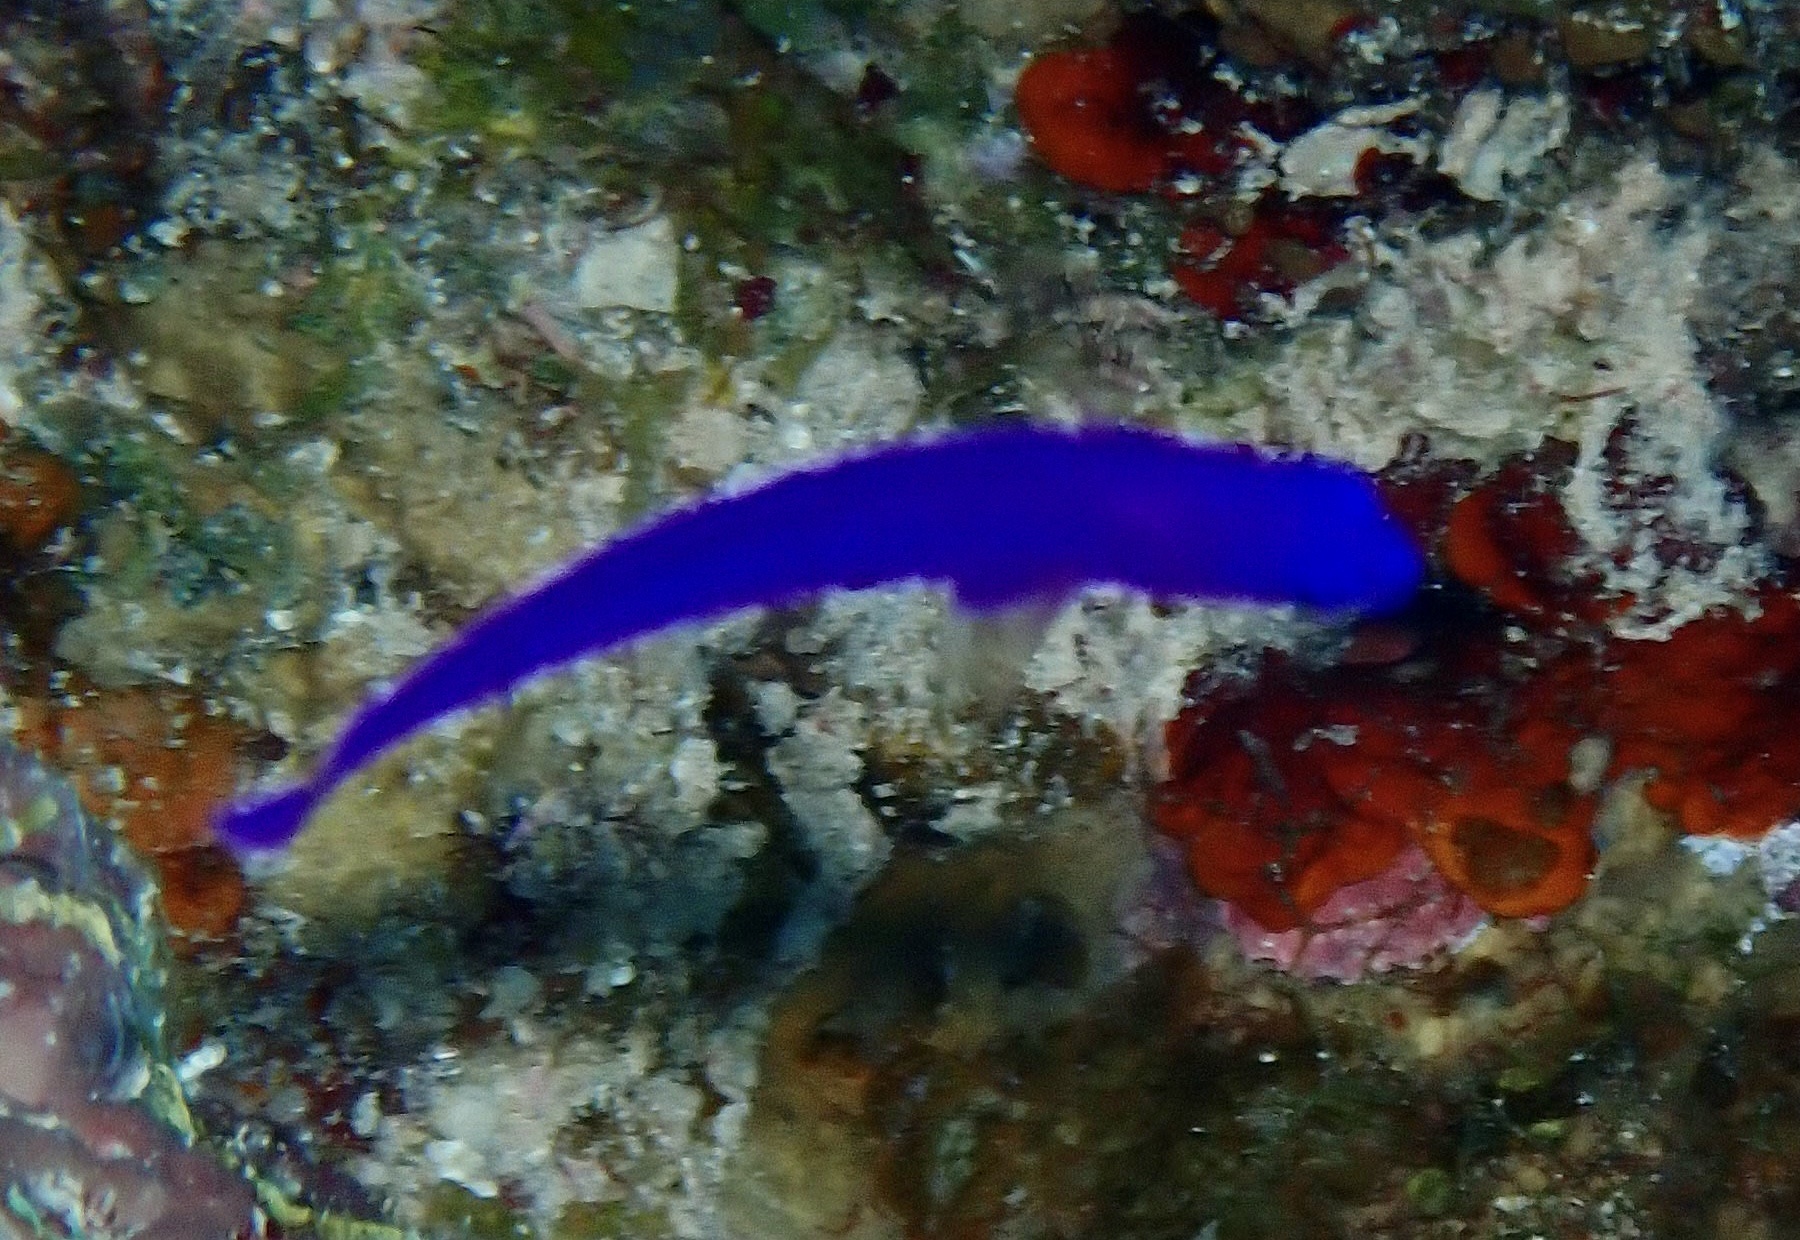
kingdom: Animalia
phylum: Chordata
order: Perciformes
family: Pseudochromidae
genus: Pseudochromis
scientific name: Pseudochromis fridmani
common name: Orchid dottyback
